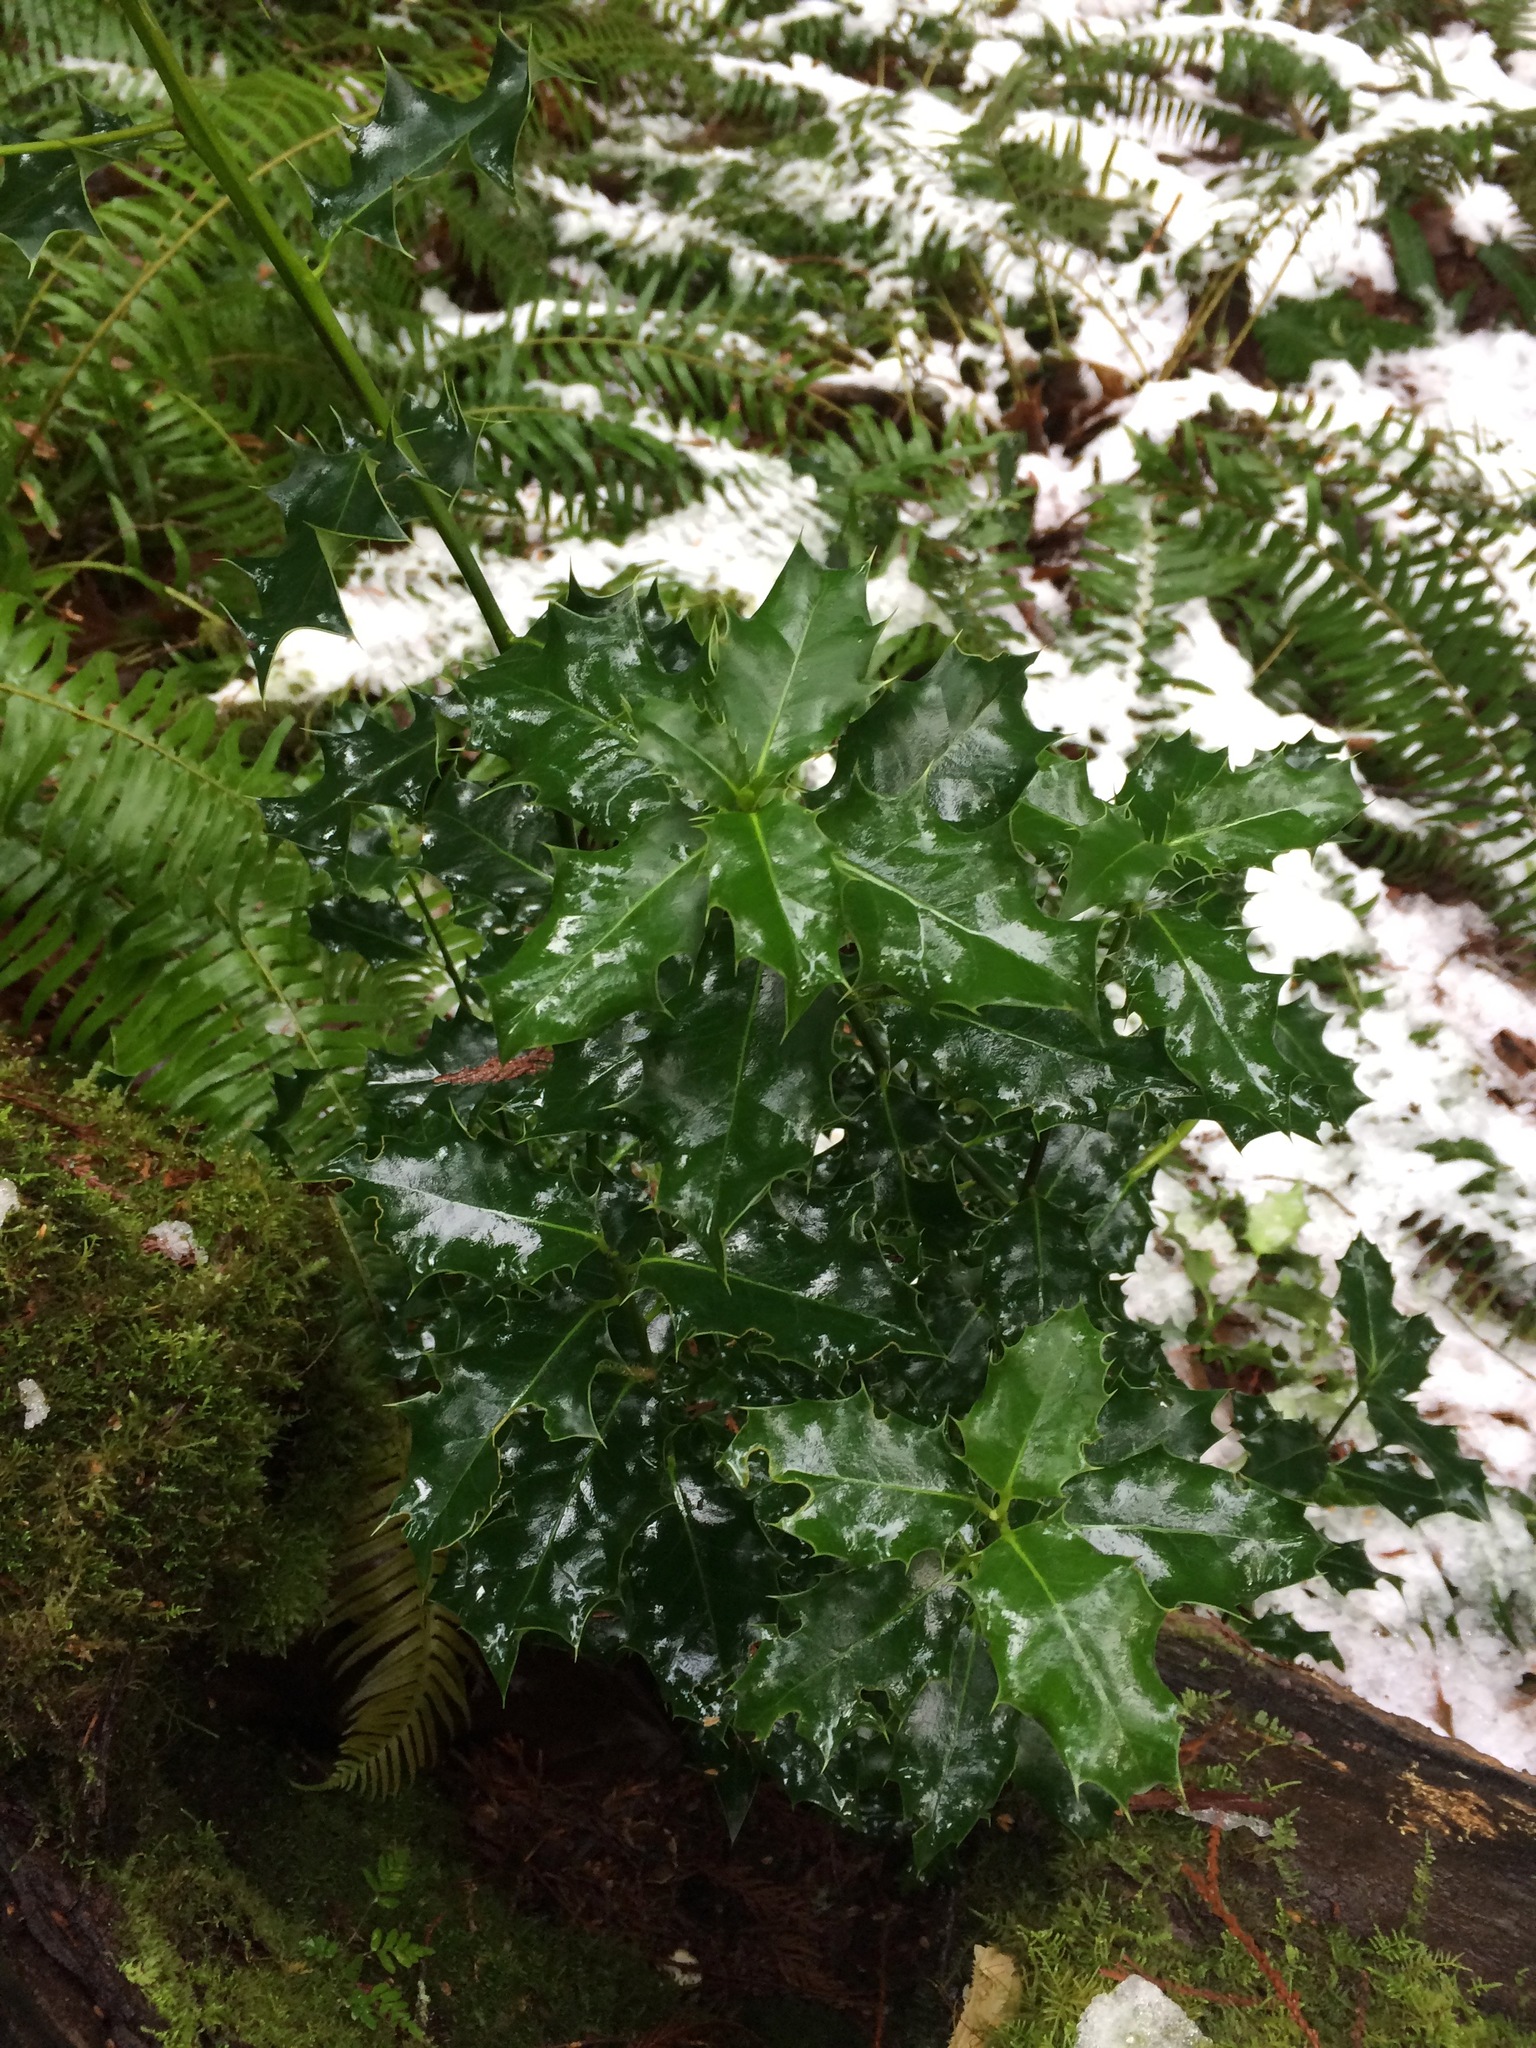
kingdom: Plantae
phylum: Tracheophyta
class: Magnoliopsida
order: Aquifoliales
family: Aquifoliaceae
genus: Ilex
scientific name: Ilex aquifolium
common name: English holly
